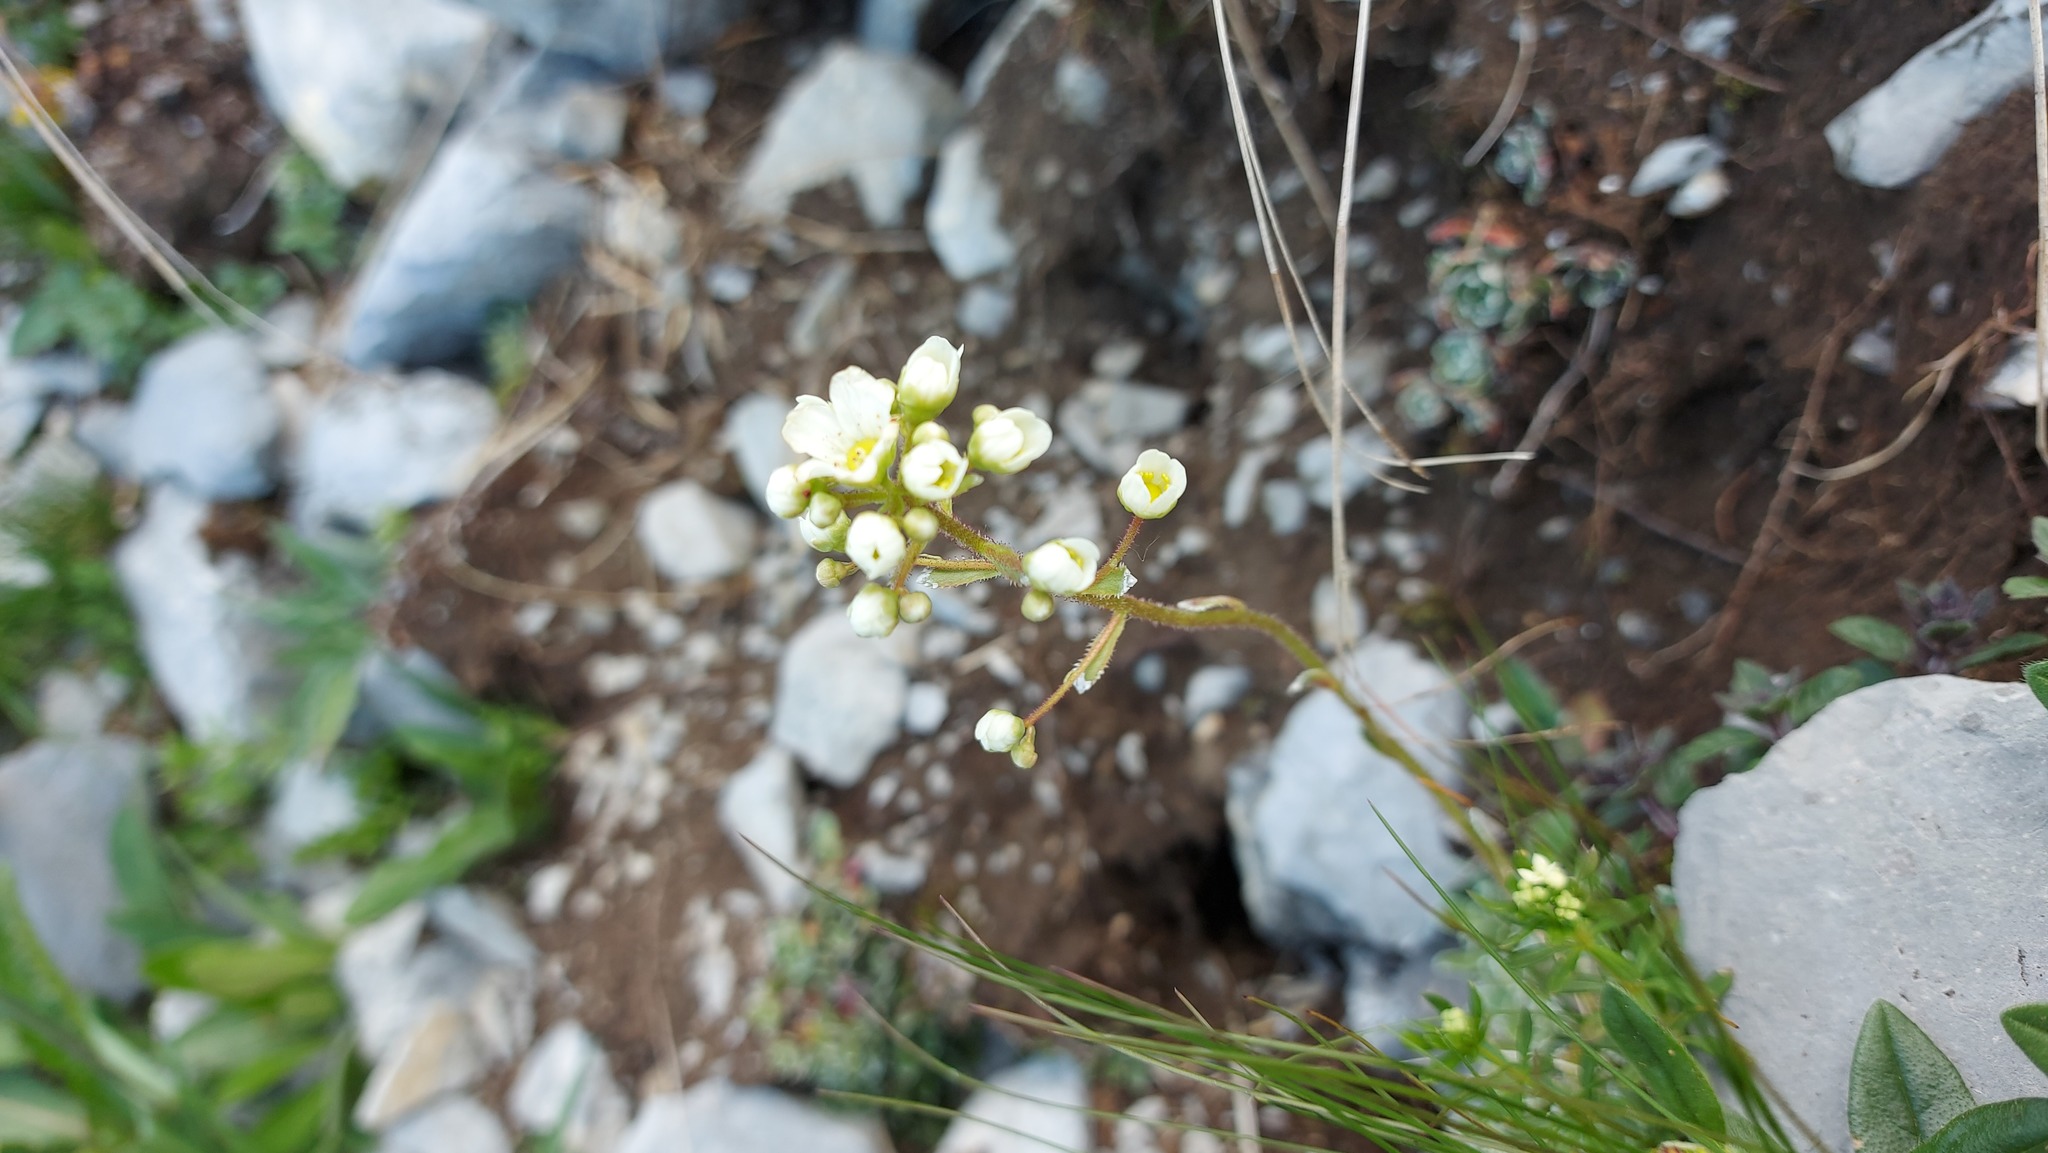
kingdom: Plantae
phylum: Tracheophyta
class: Magnoliopsida
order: Saxifragales
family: Saxifragaceae
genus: Saxifraga
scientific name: Saxifraga paniculata
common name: Livelong saxifrage
